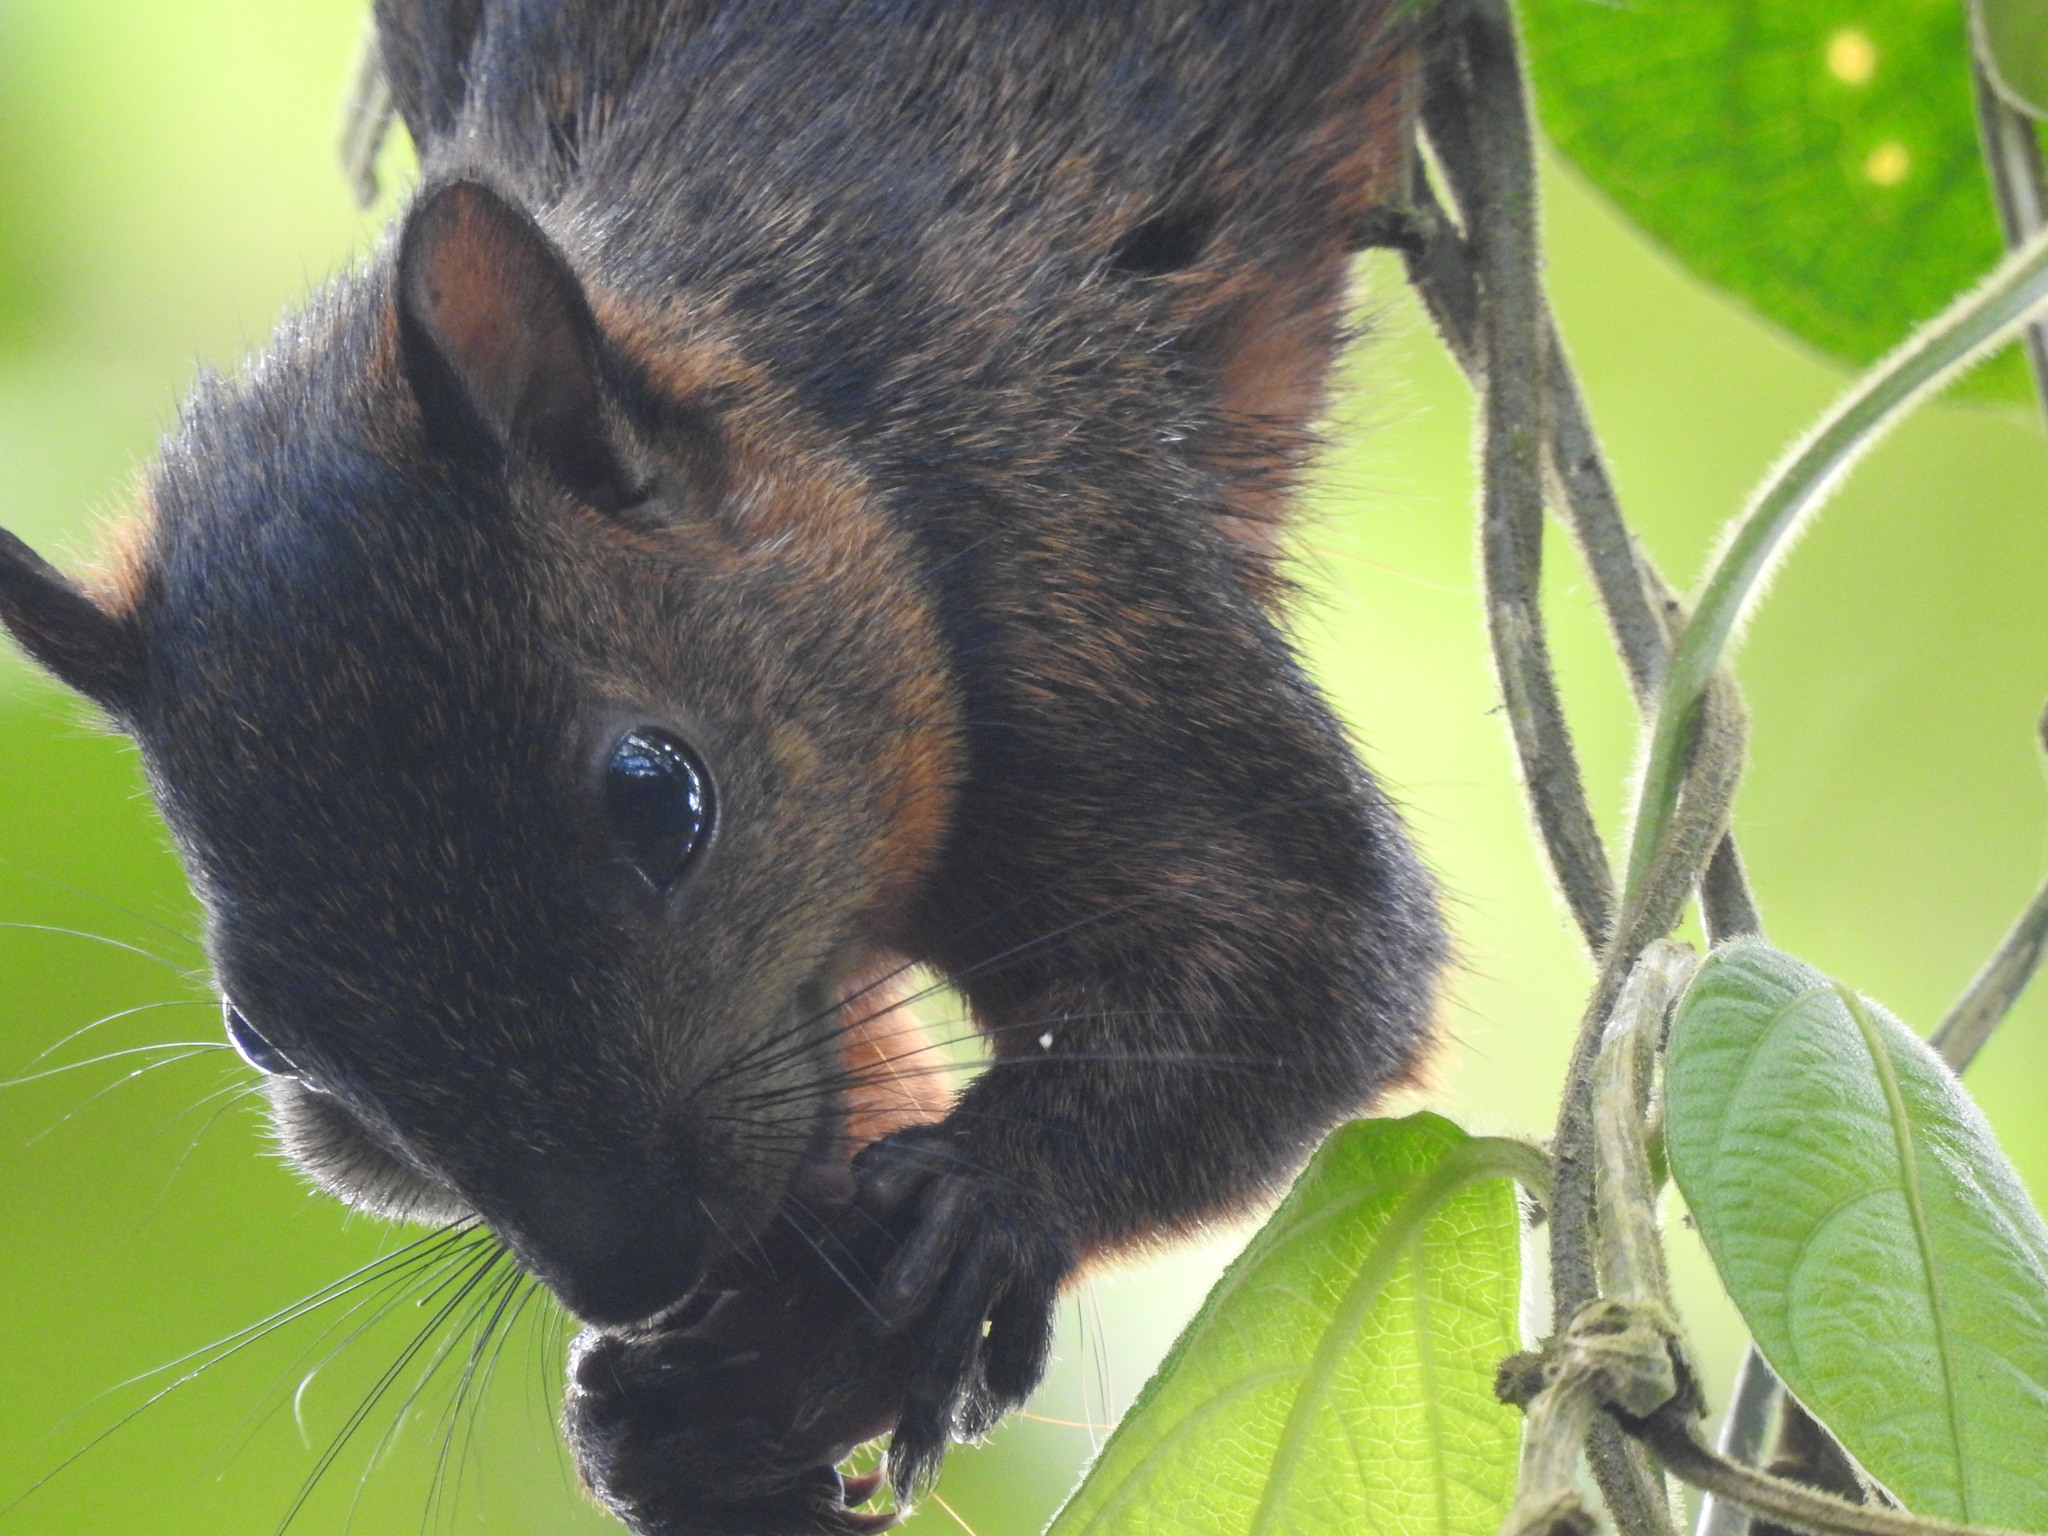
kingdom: Animalia
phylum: Chordata
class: Mammalia
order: Rodentia
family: Sciuridae
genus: Sciurus
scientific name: Sciurus variegatoides
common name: Variegated squirrel
